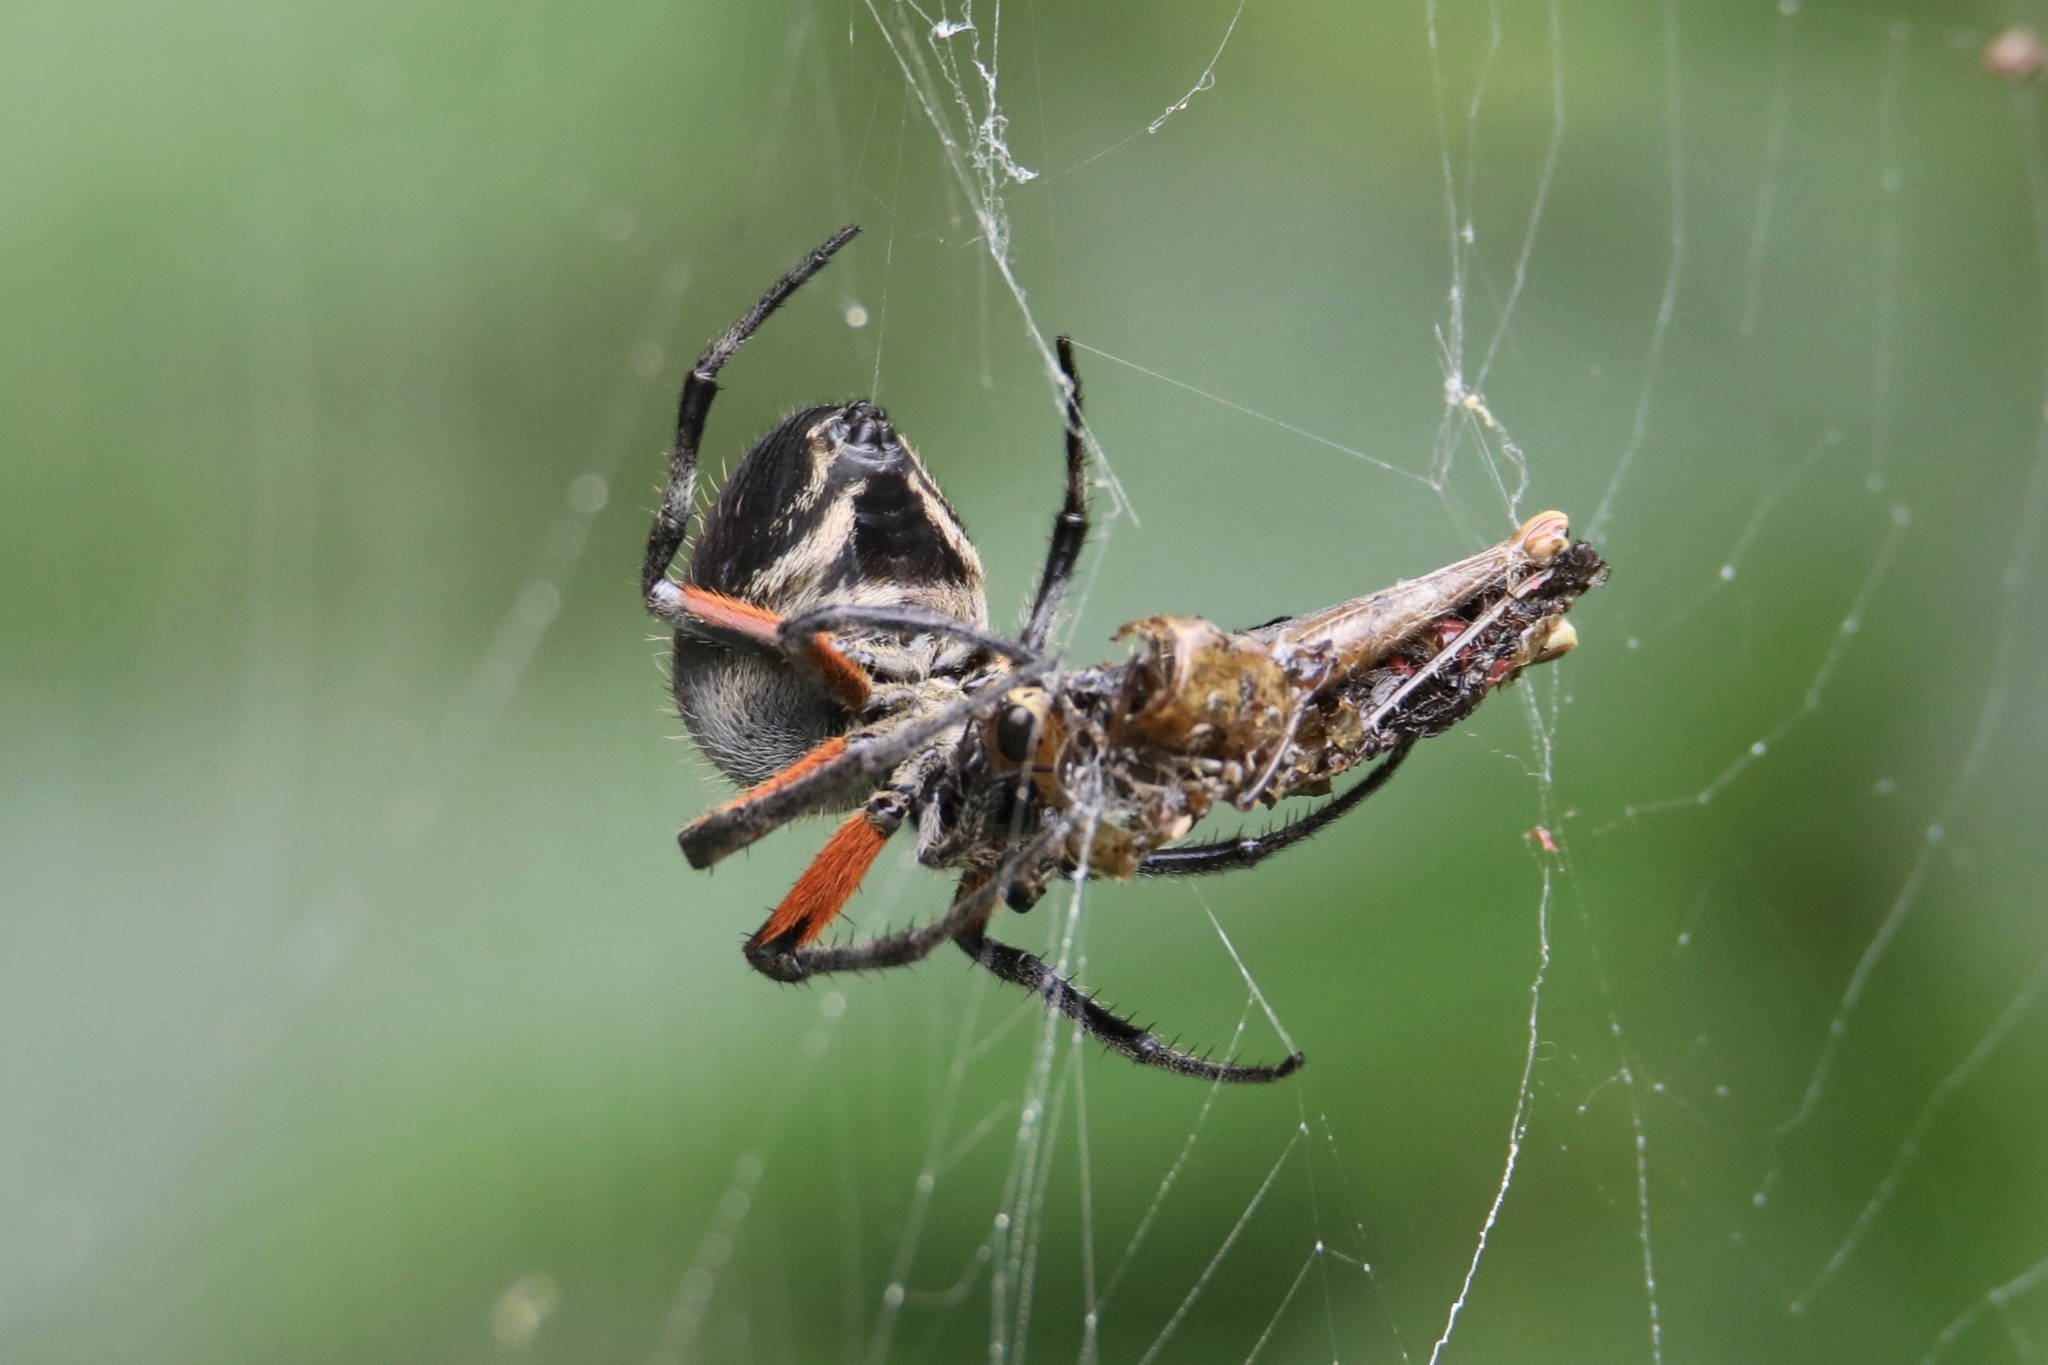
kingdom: Animalia
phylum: Arthropoda
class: Arachnida
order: Araneae
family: Araneidae
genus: Eriophora
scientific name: Eriophora fuliginea
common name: Orb weavers
